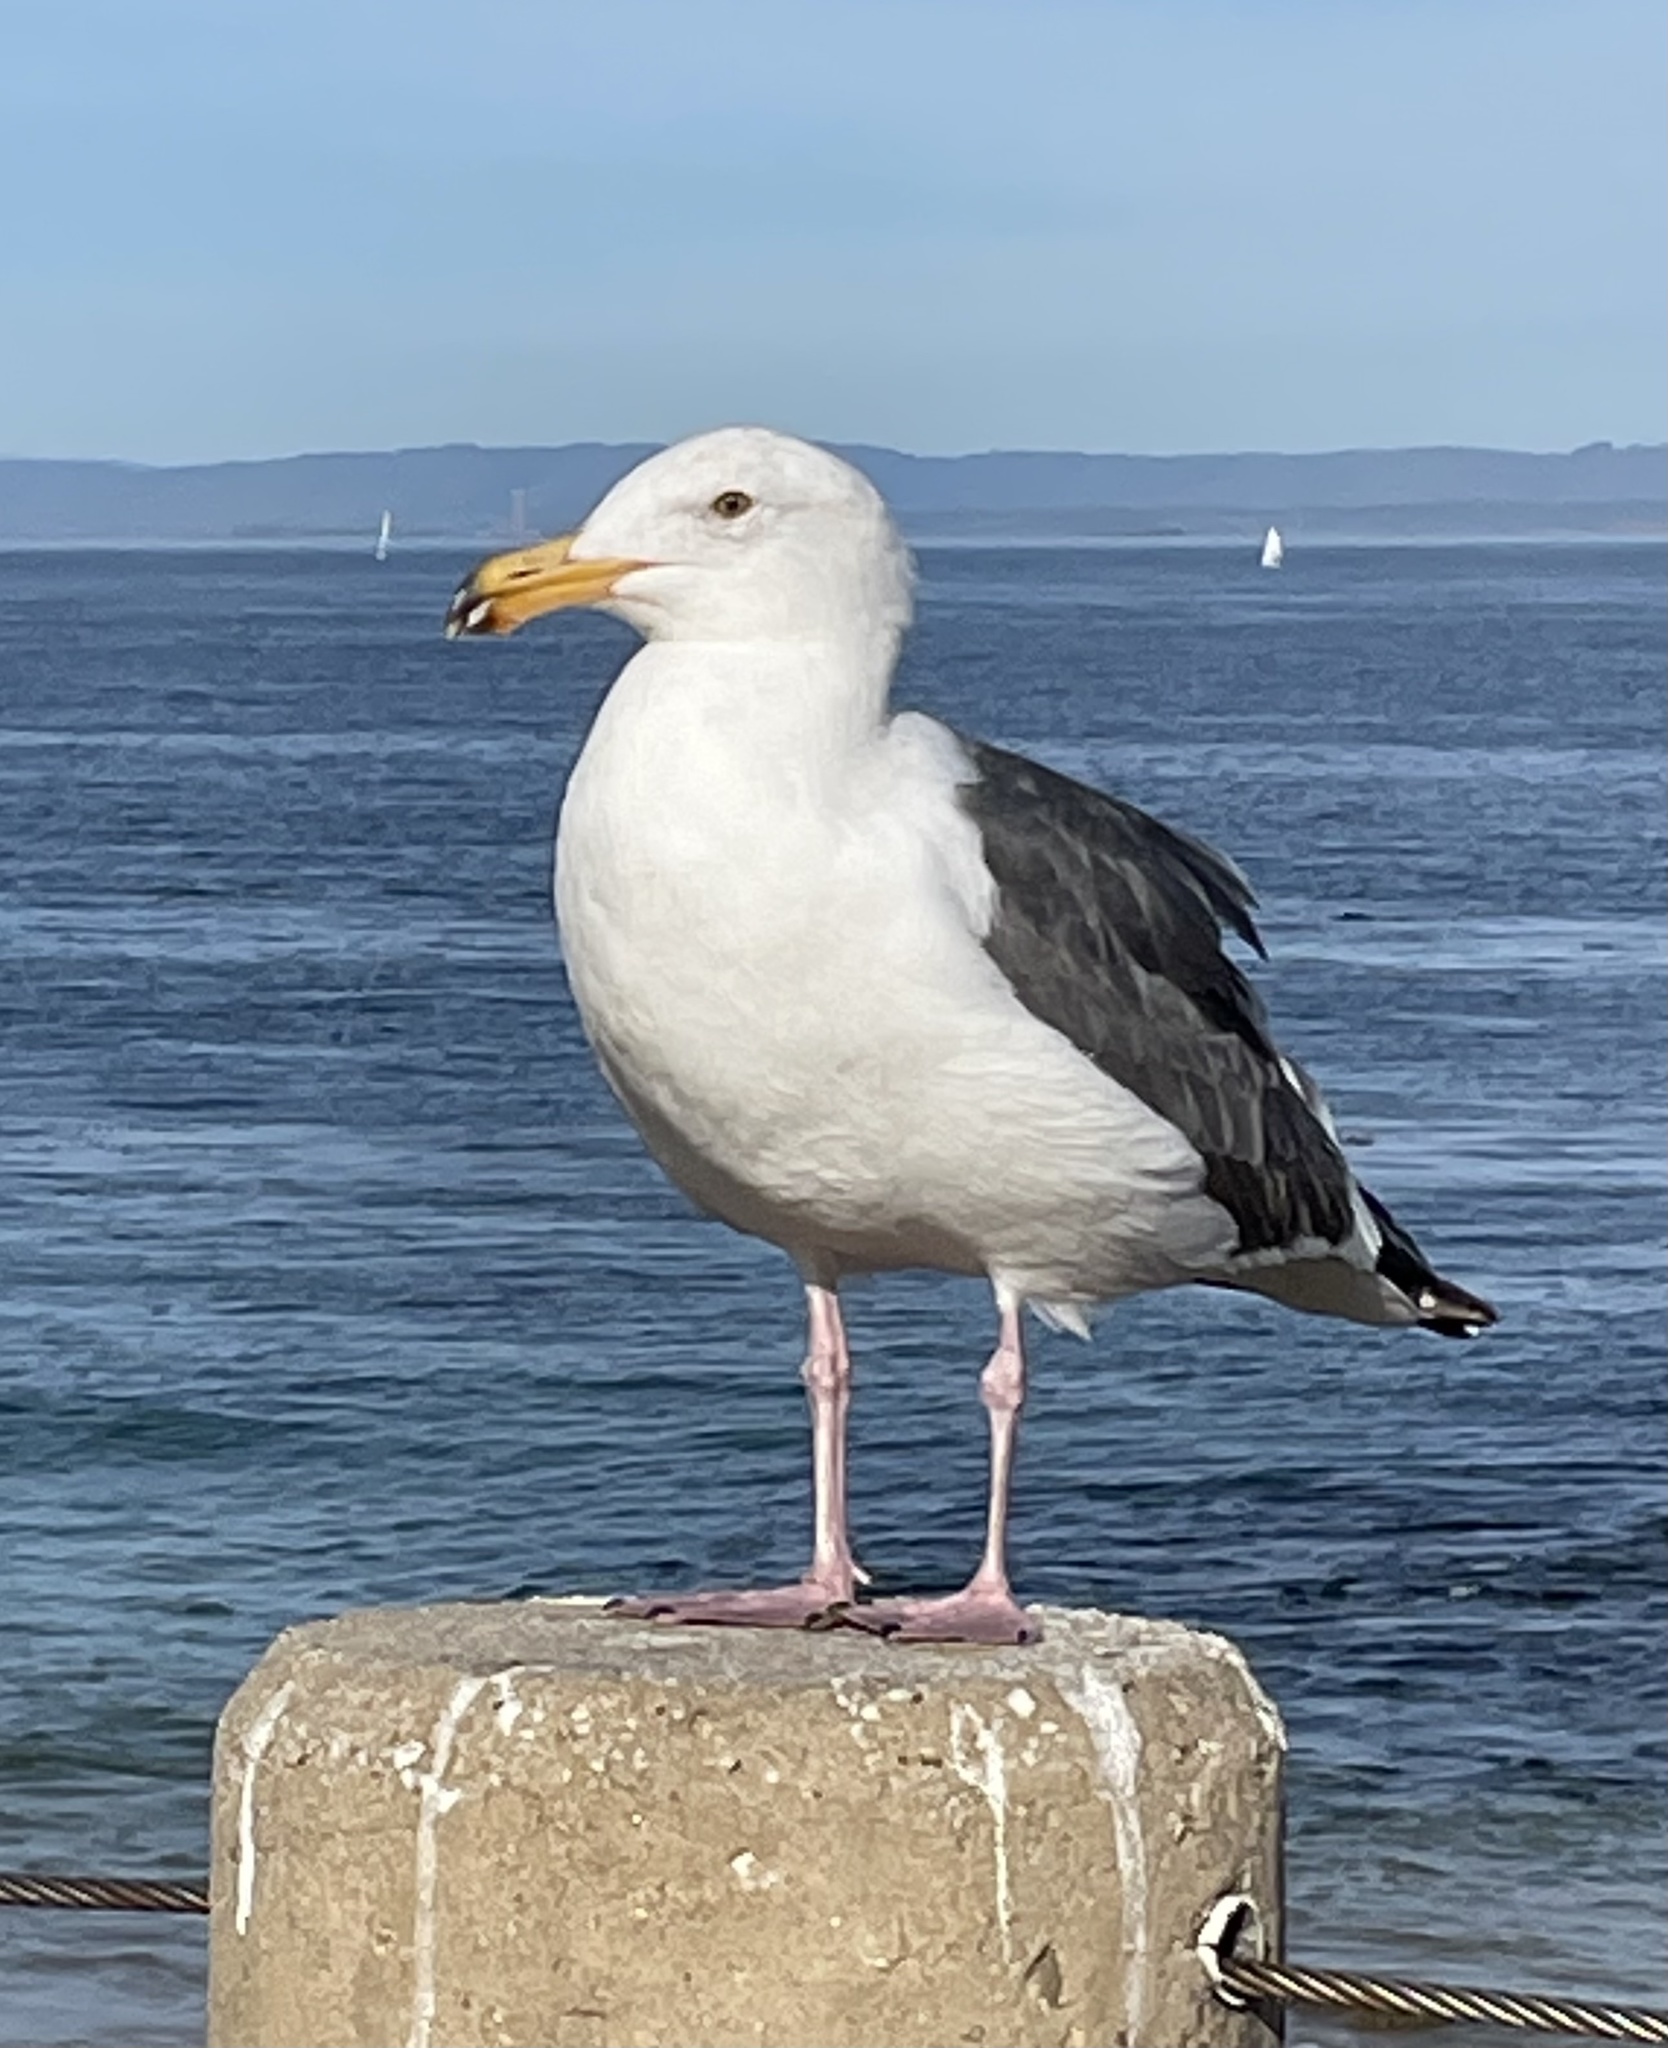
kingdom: Animalia
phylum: Chordata
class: Aves
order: Charadriiformes
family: Laridae
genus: Larus
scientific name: Larus occidentalis
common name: Western gull
